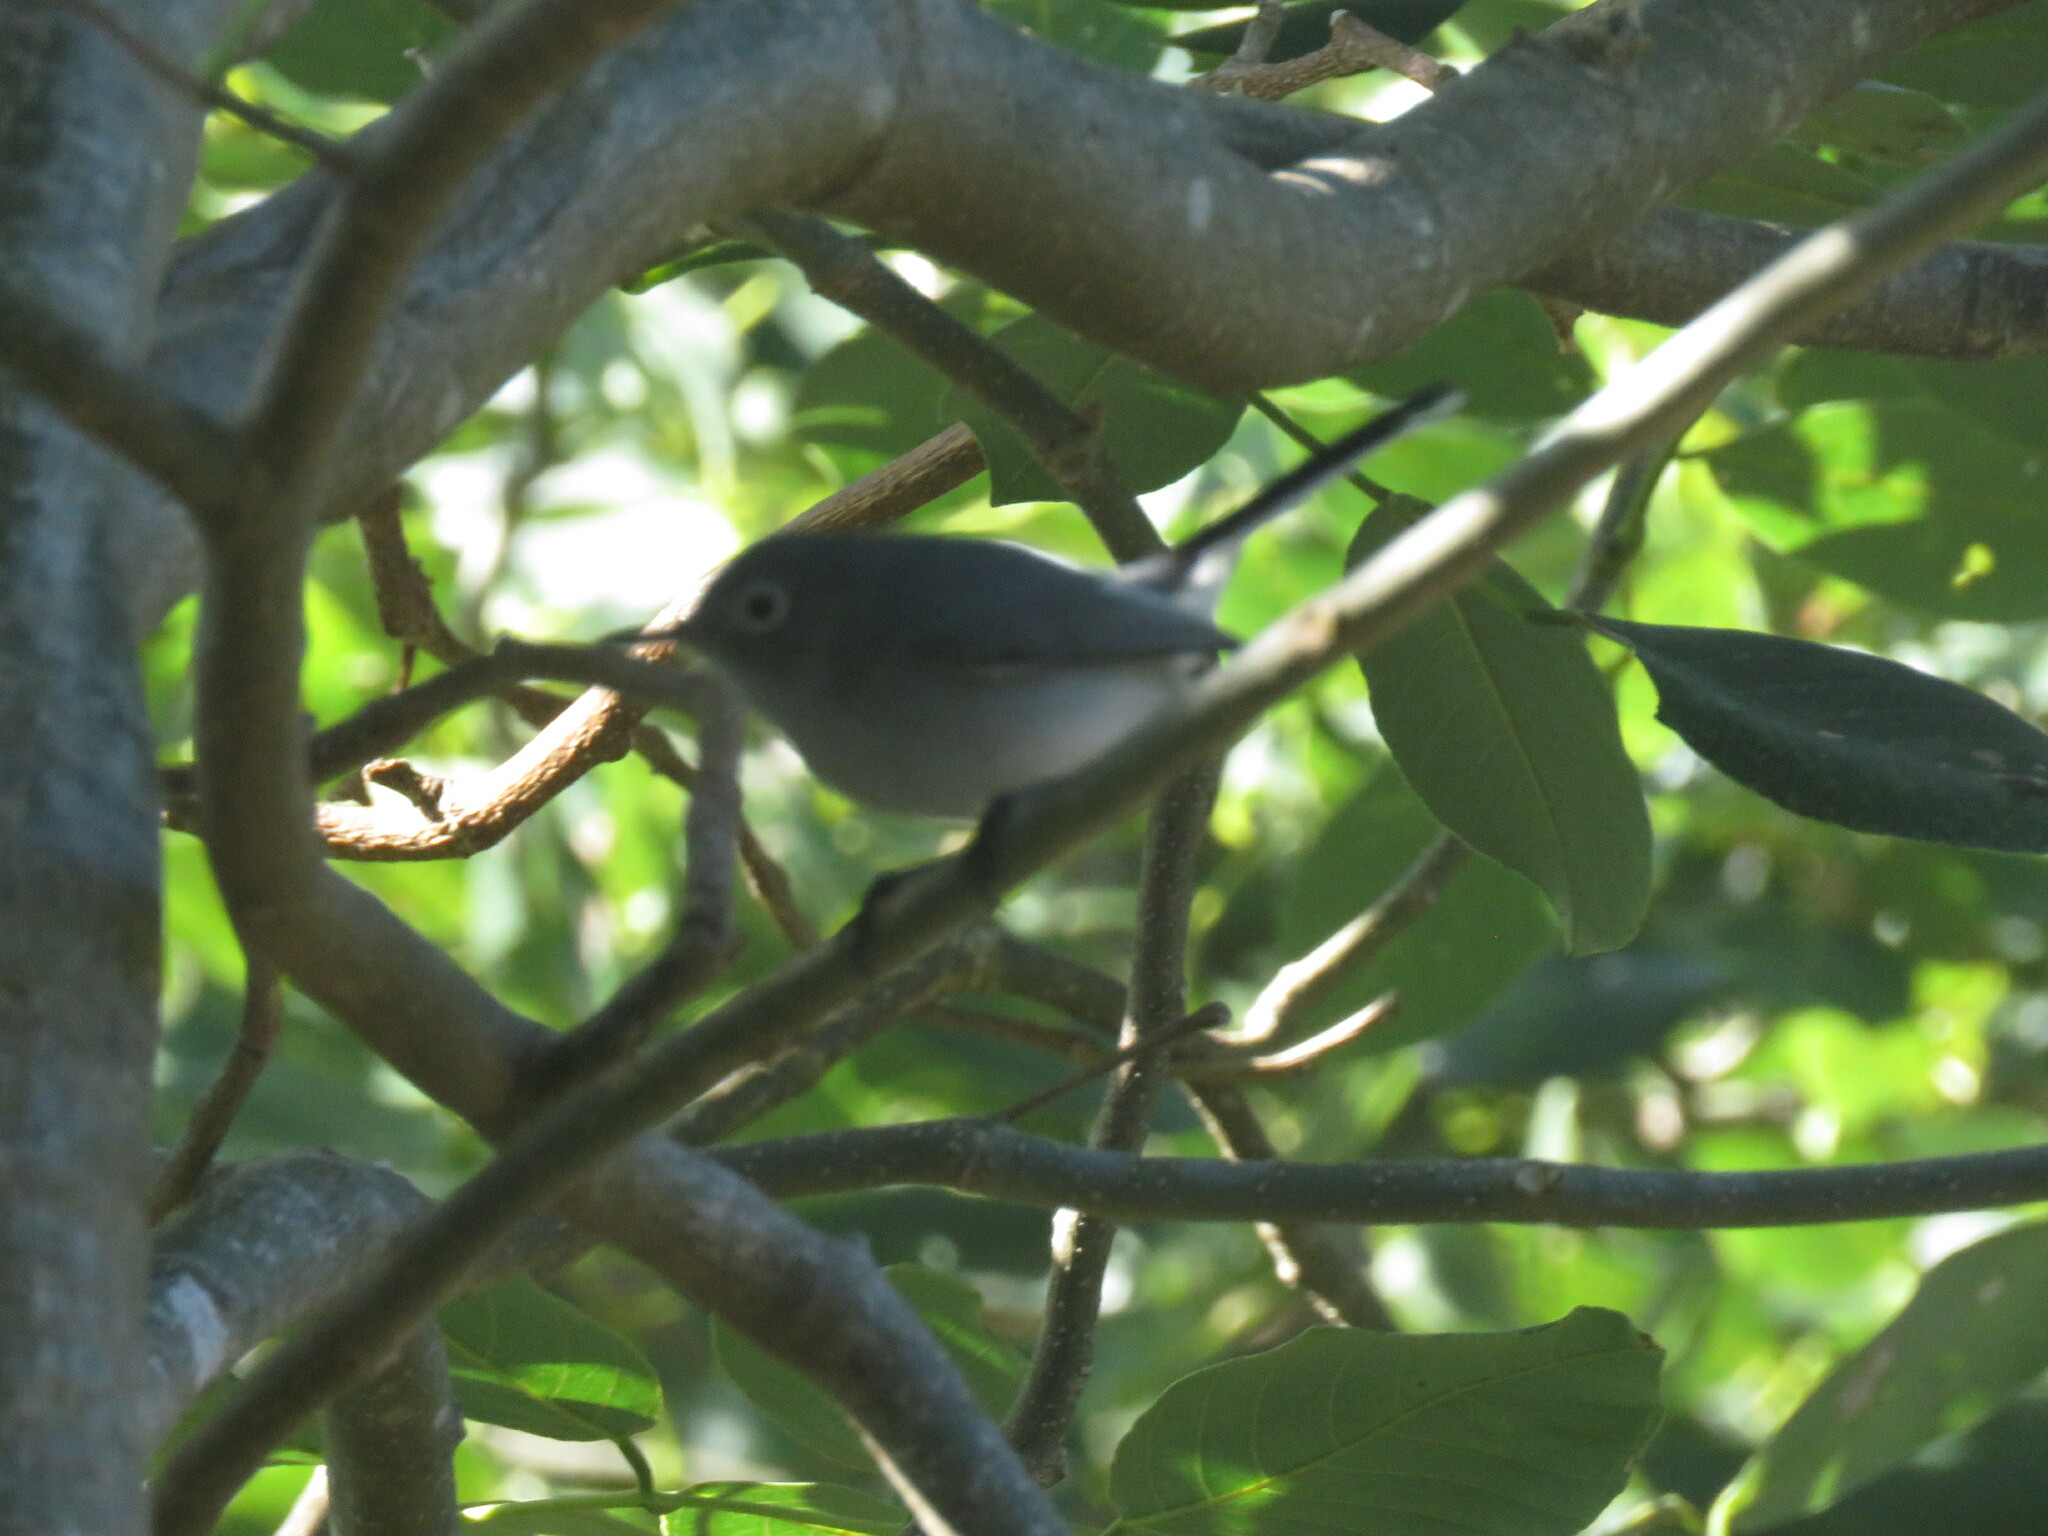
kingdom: Animalia
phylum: Chordata
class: Aves
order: Passeriformes
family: Polioptilidae
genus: Polioptila
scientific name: Polioptila caerulea
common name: Blue-gray gnatcatcher
